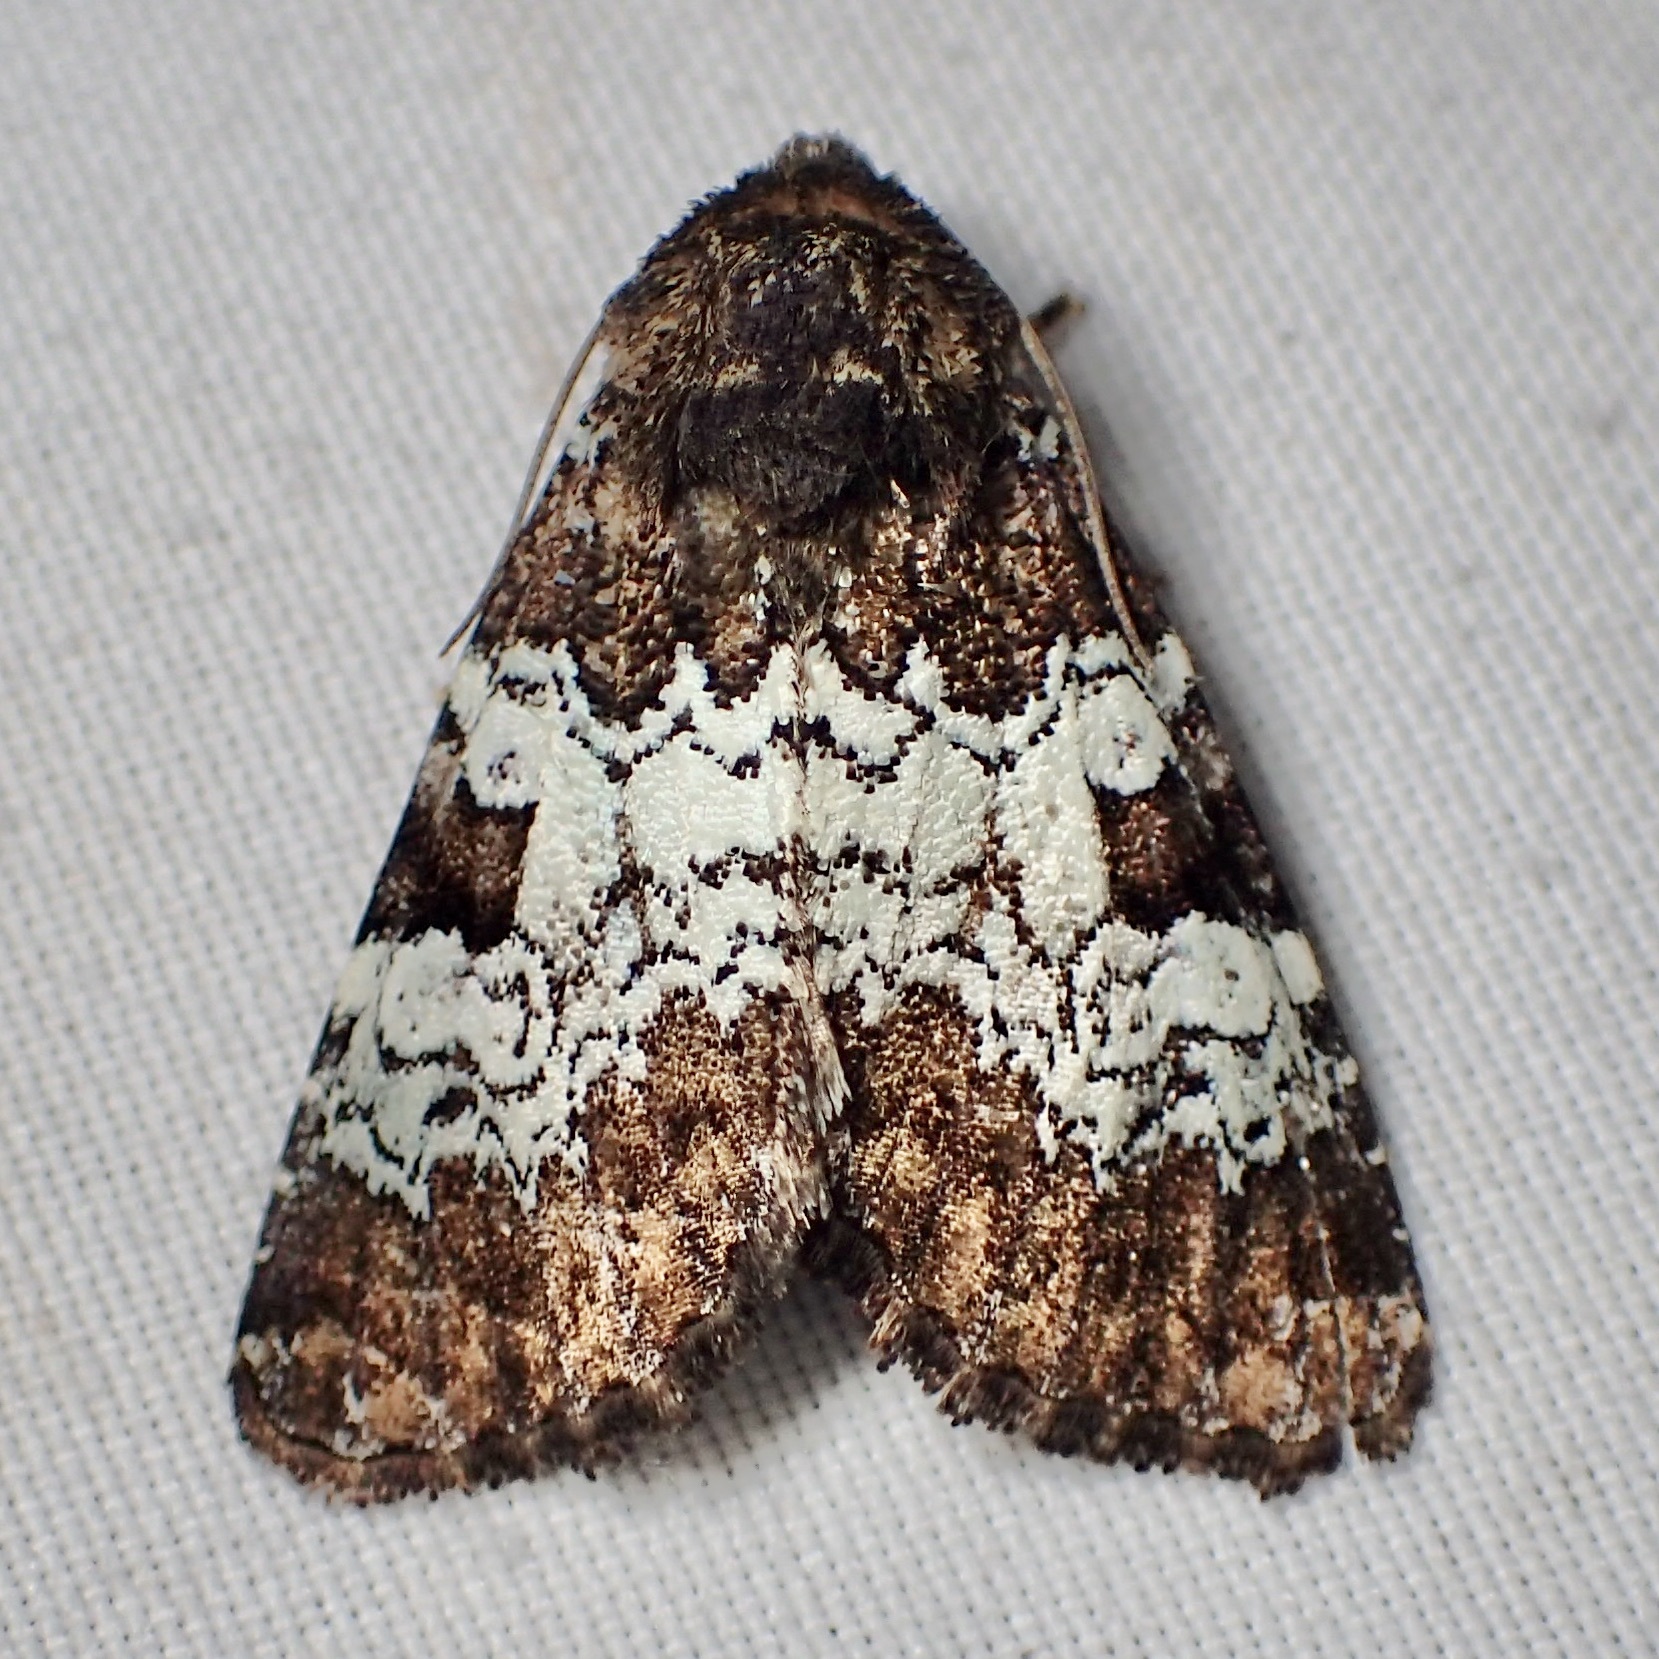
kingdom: Animalia
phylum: Arthropoda
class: Insecta
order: Lepidoptera
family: Noctuidae
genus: Euamiana
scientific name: Euamiana contrasta
